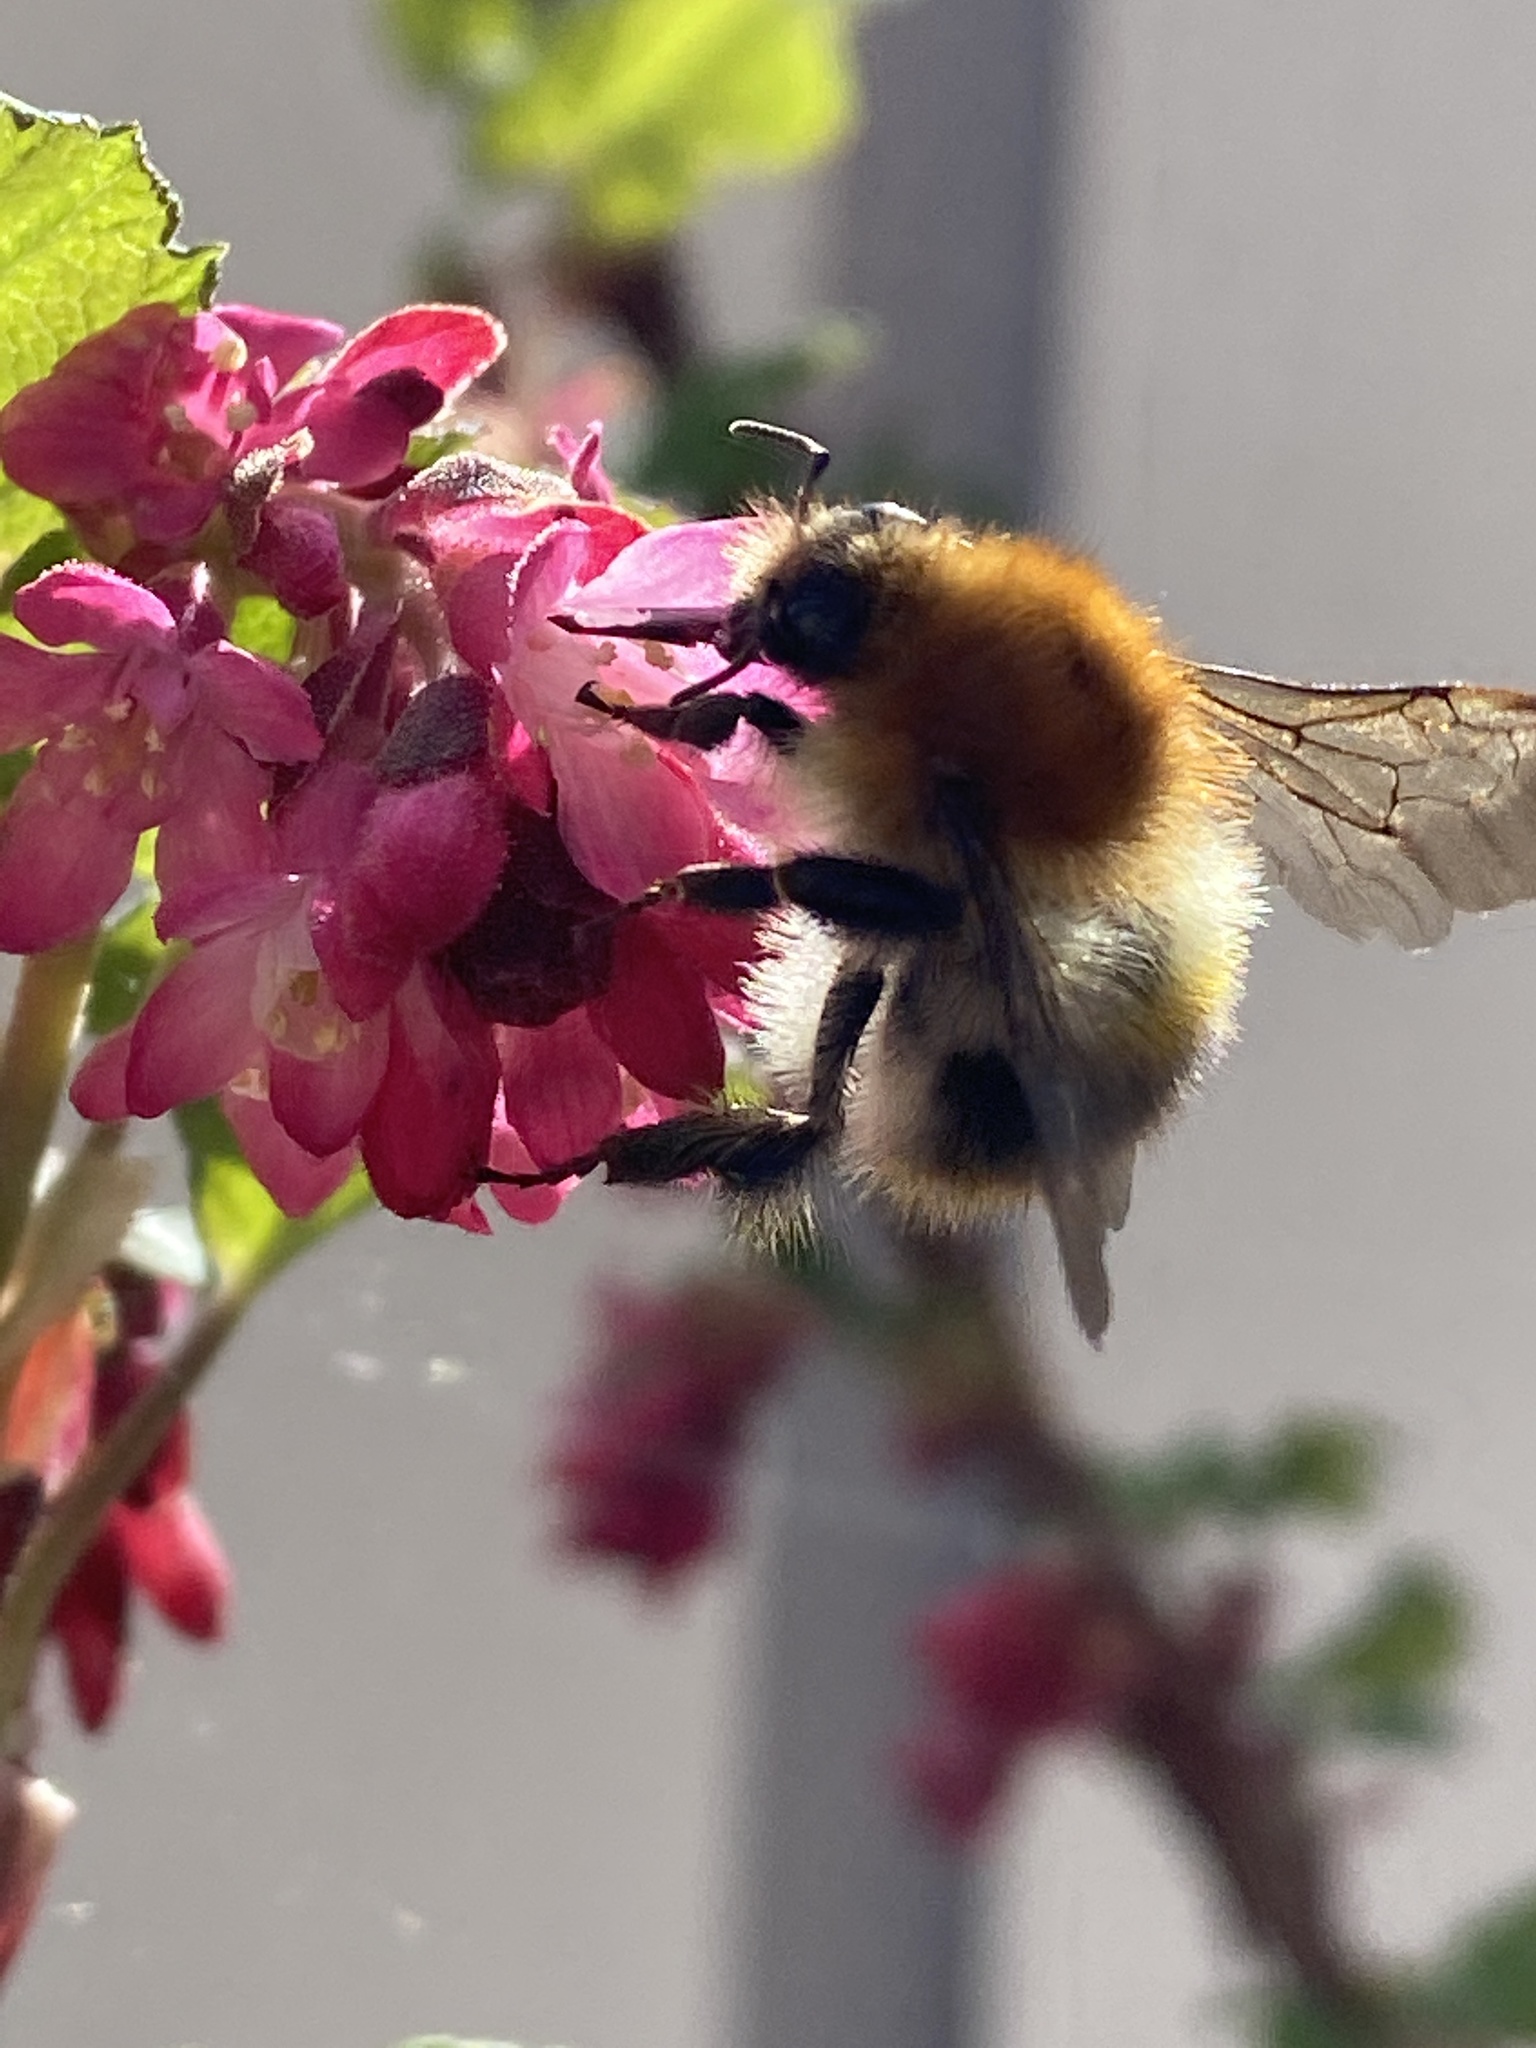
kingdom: Animalia
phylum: Arthropoda
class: Insecta
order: Hymenoptera
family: Apidae
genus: Bombus
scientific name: Bombus pascuorum
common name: Common carder bee
